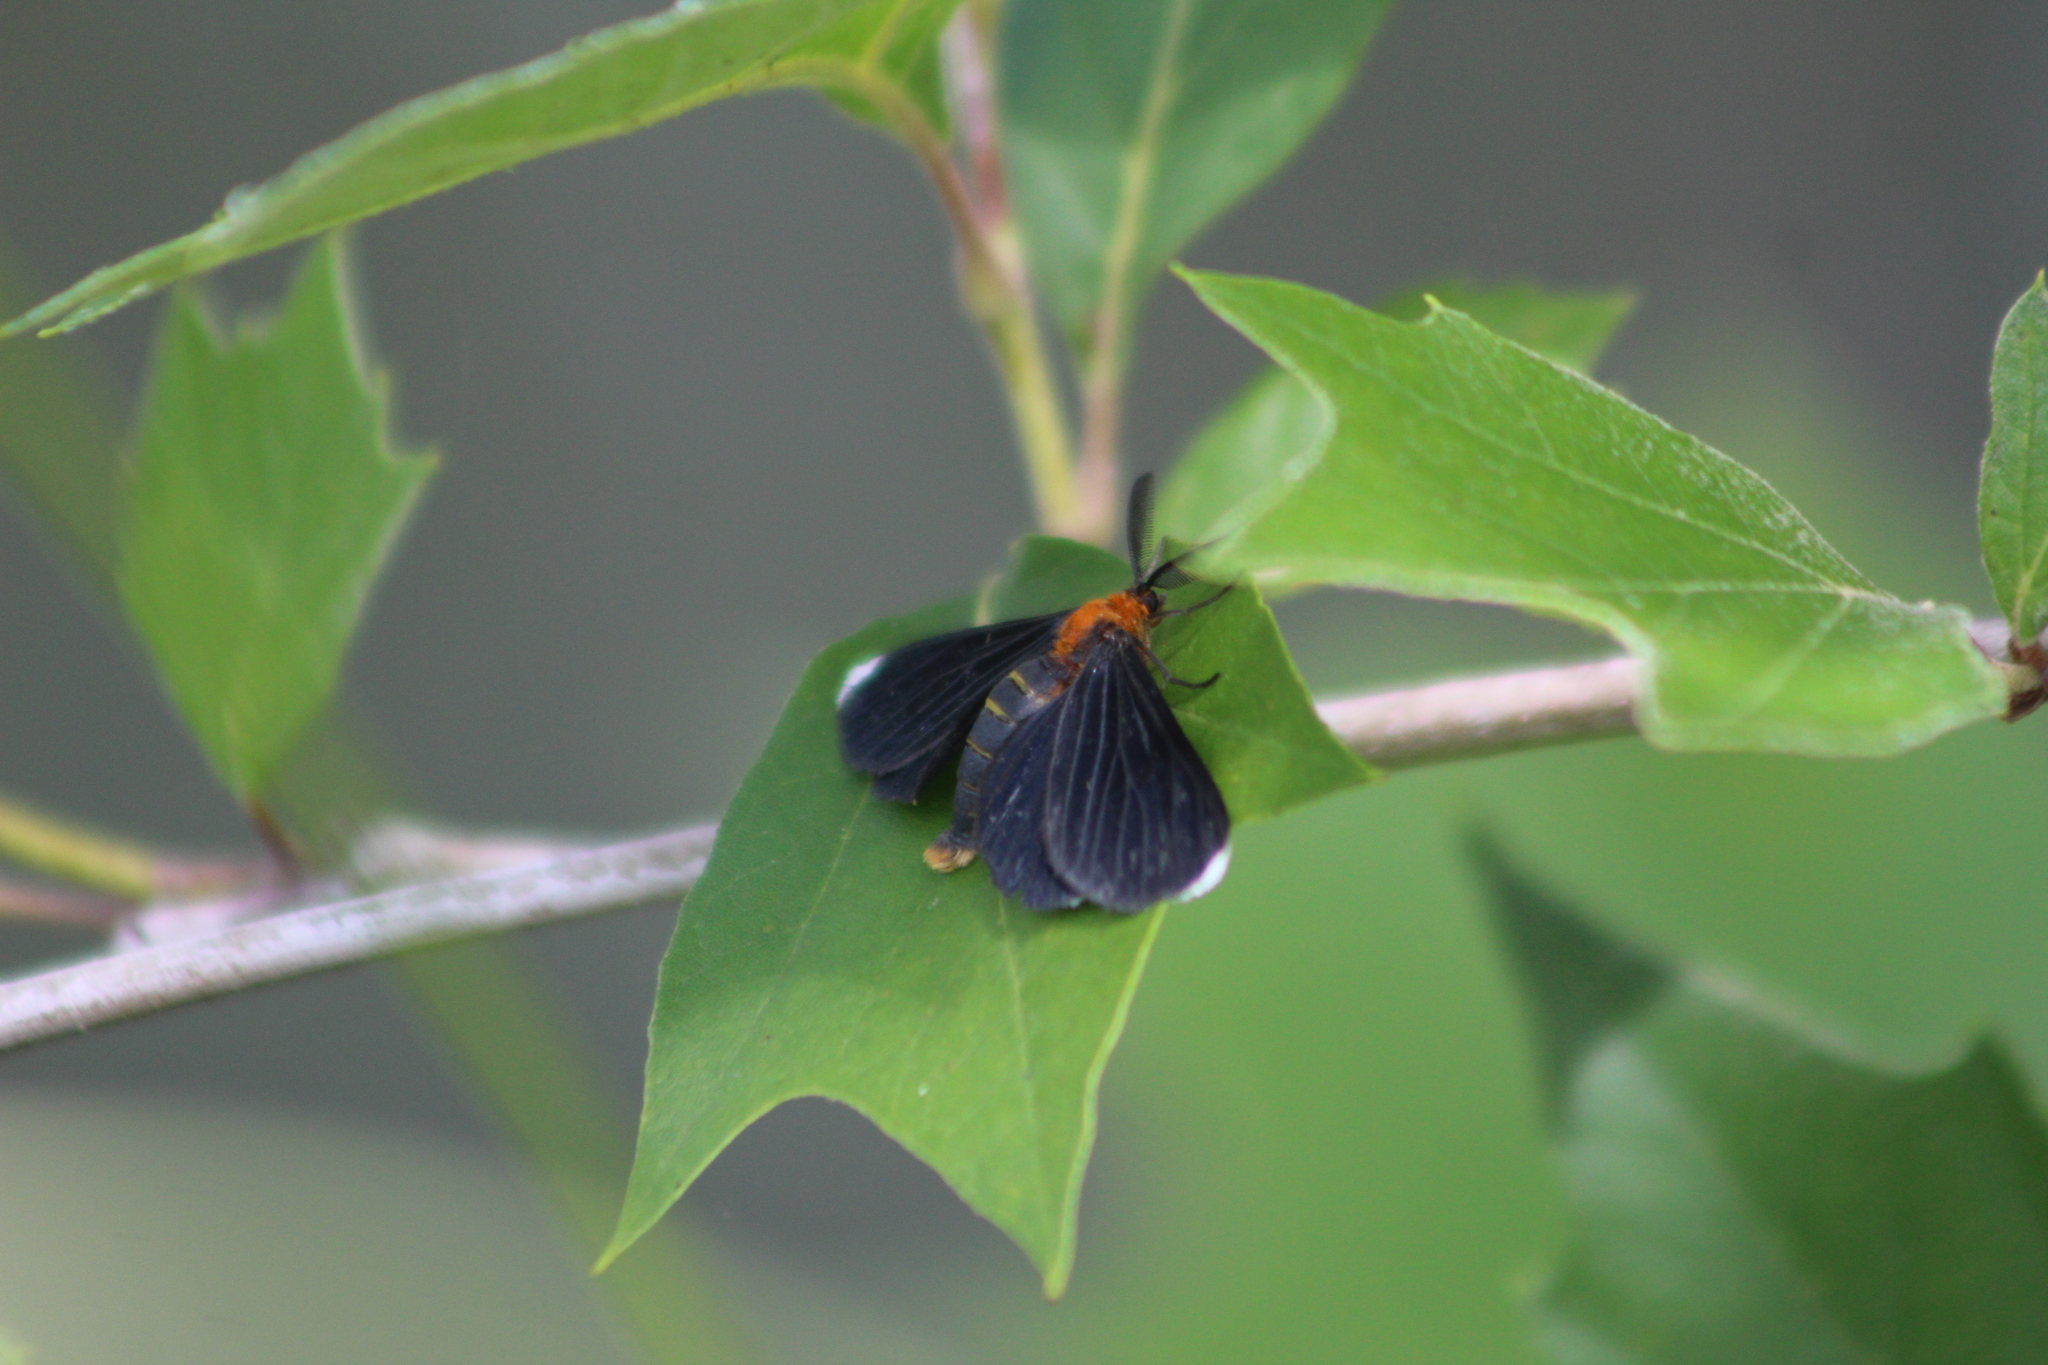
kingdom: Animalia
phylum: Arthropoda
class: Insecta
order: Lepidoptera
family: Geometridae
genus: Melanchroia
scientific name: Melanchroia chephise
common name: White-tipped black
